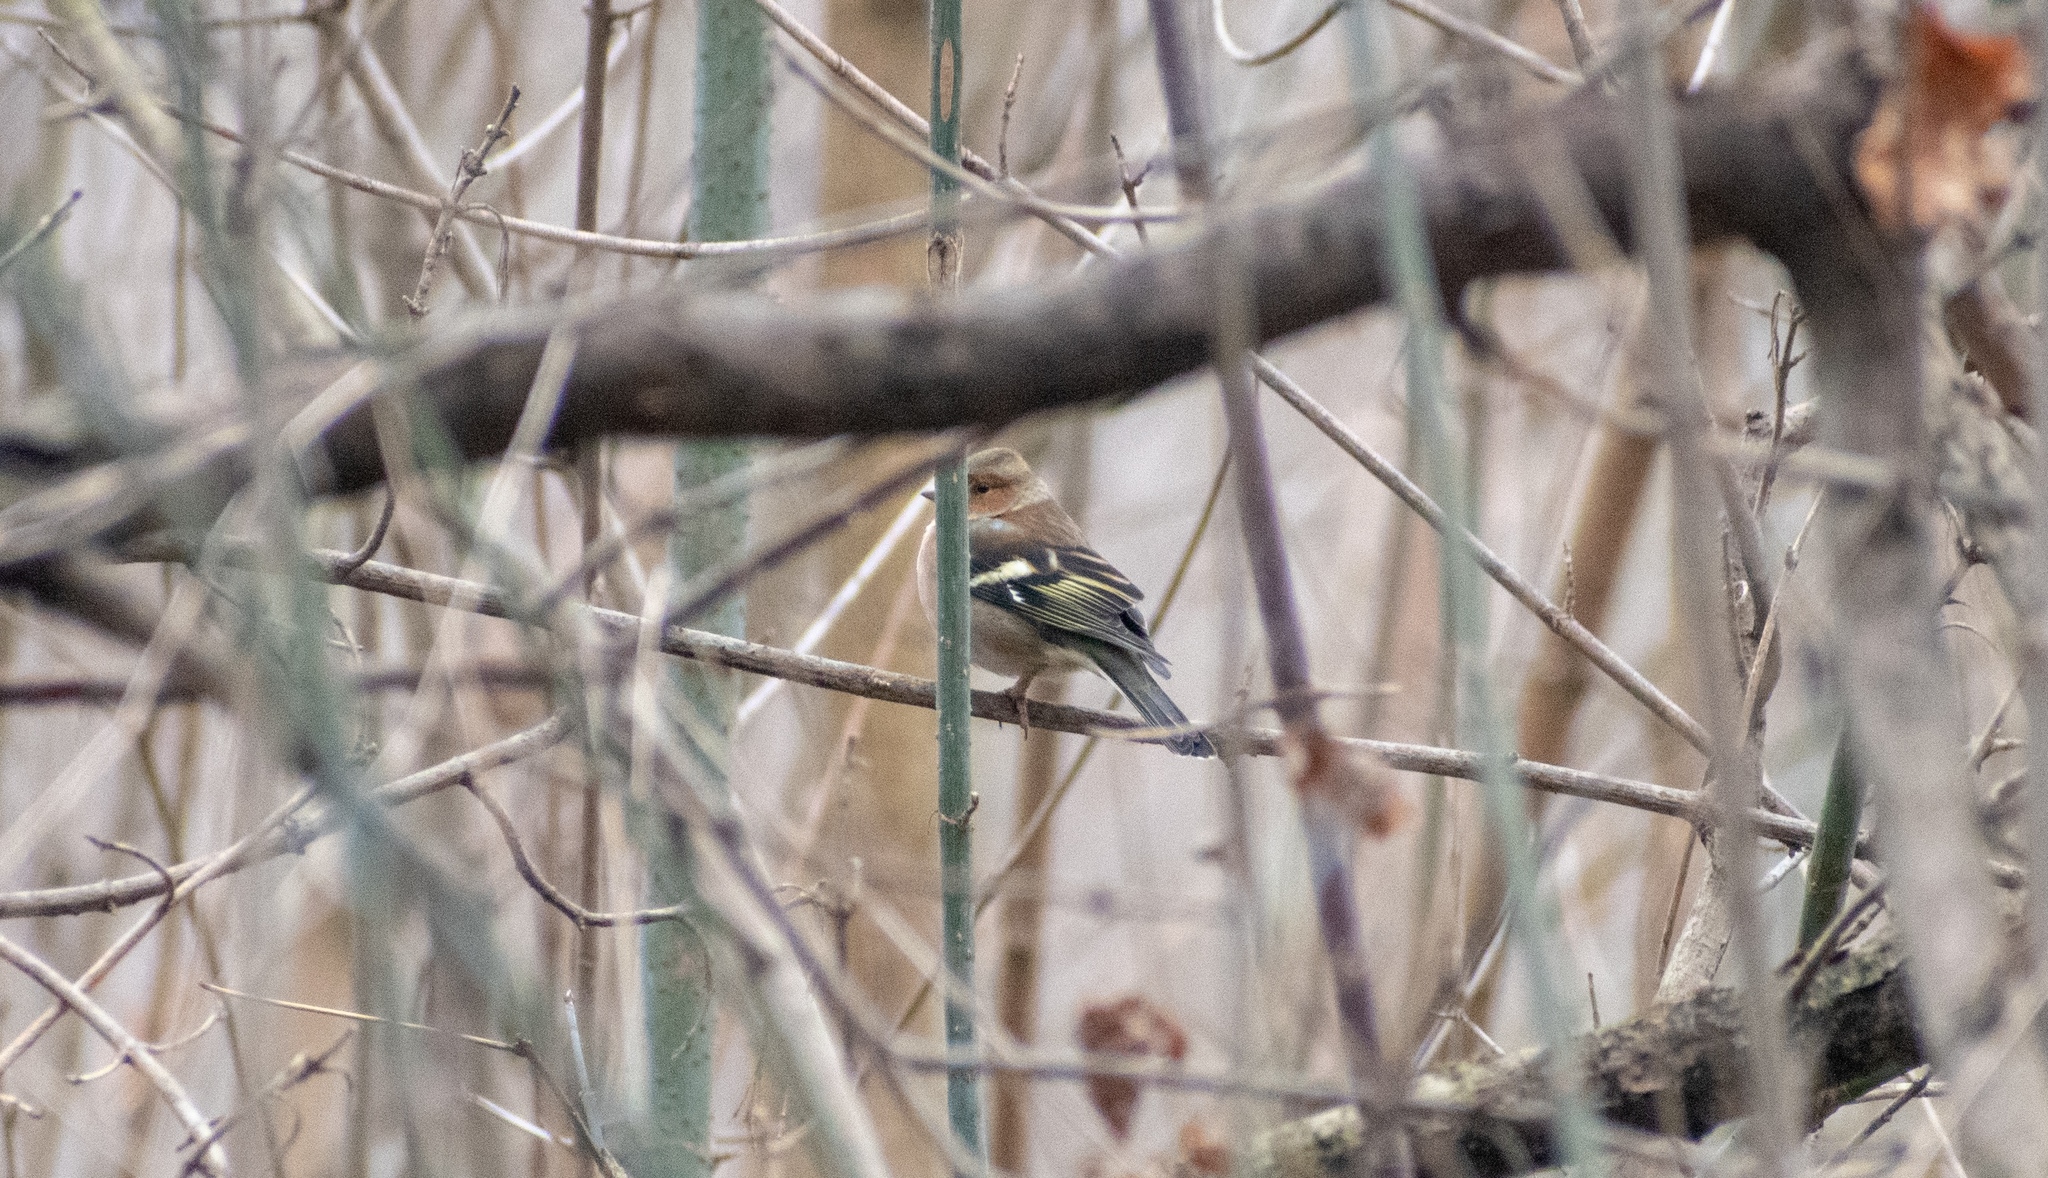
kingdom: Animalia
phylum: Chordata
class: Aves
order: Passeriformes
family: Fringillidae
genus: Fringilla
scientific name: Fringilla coelebs
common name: Common chaffinch
